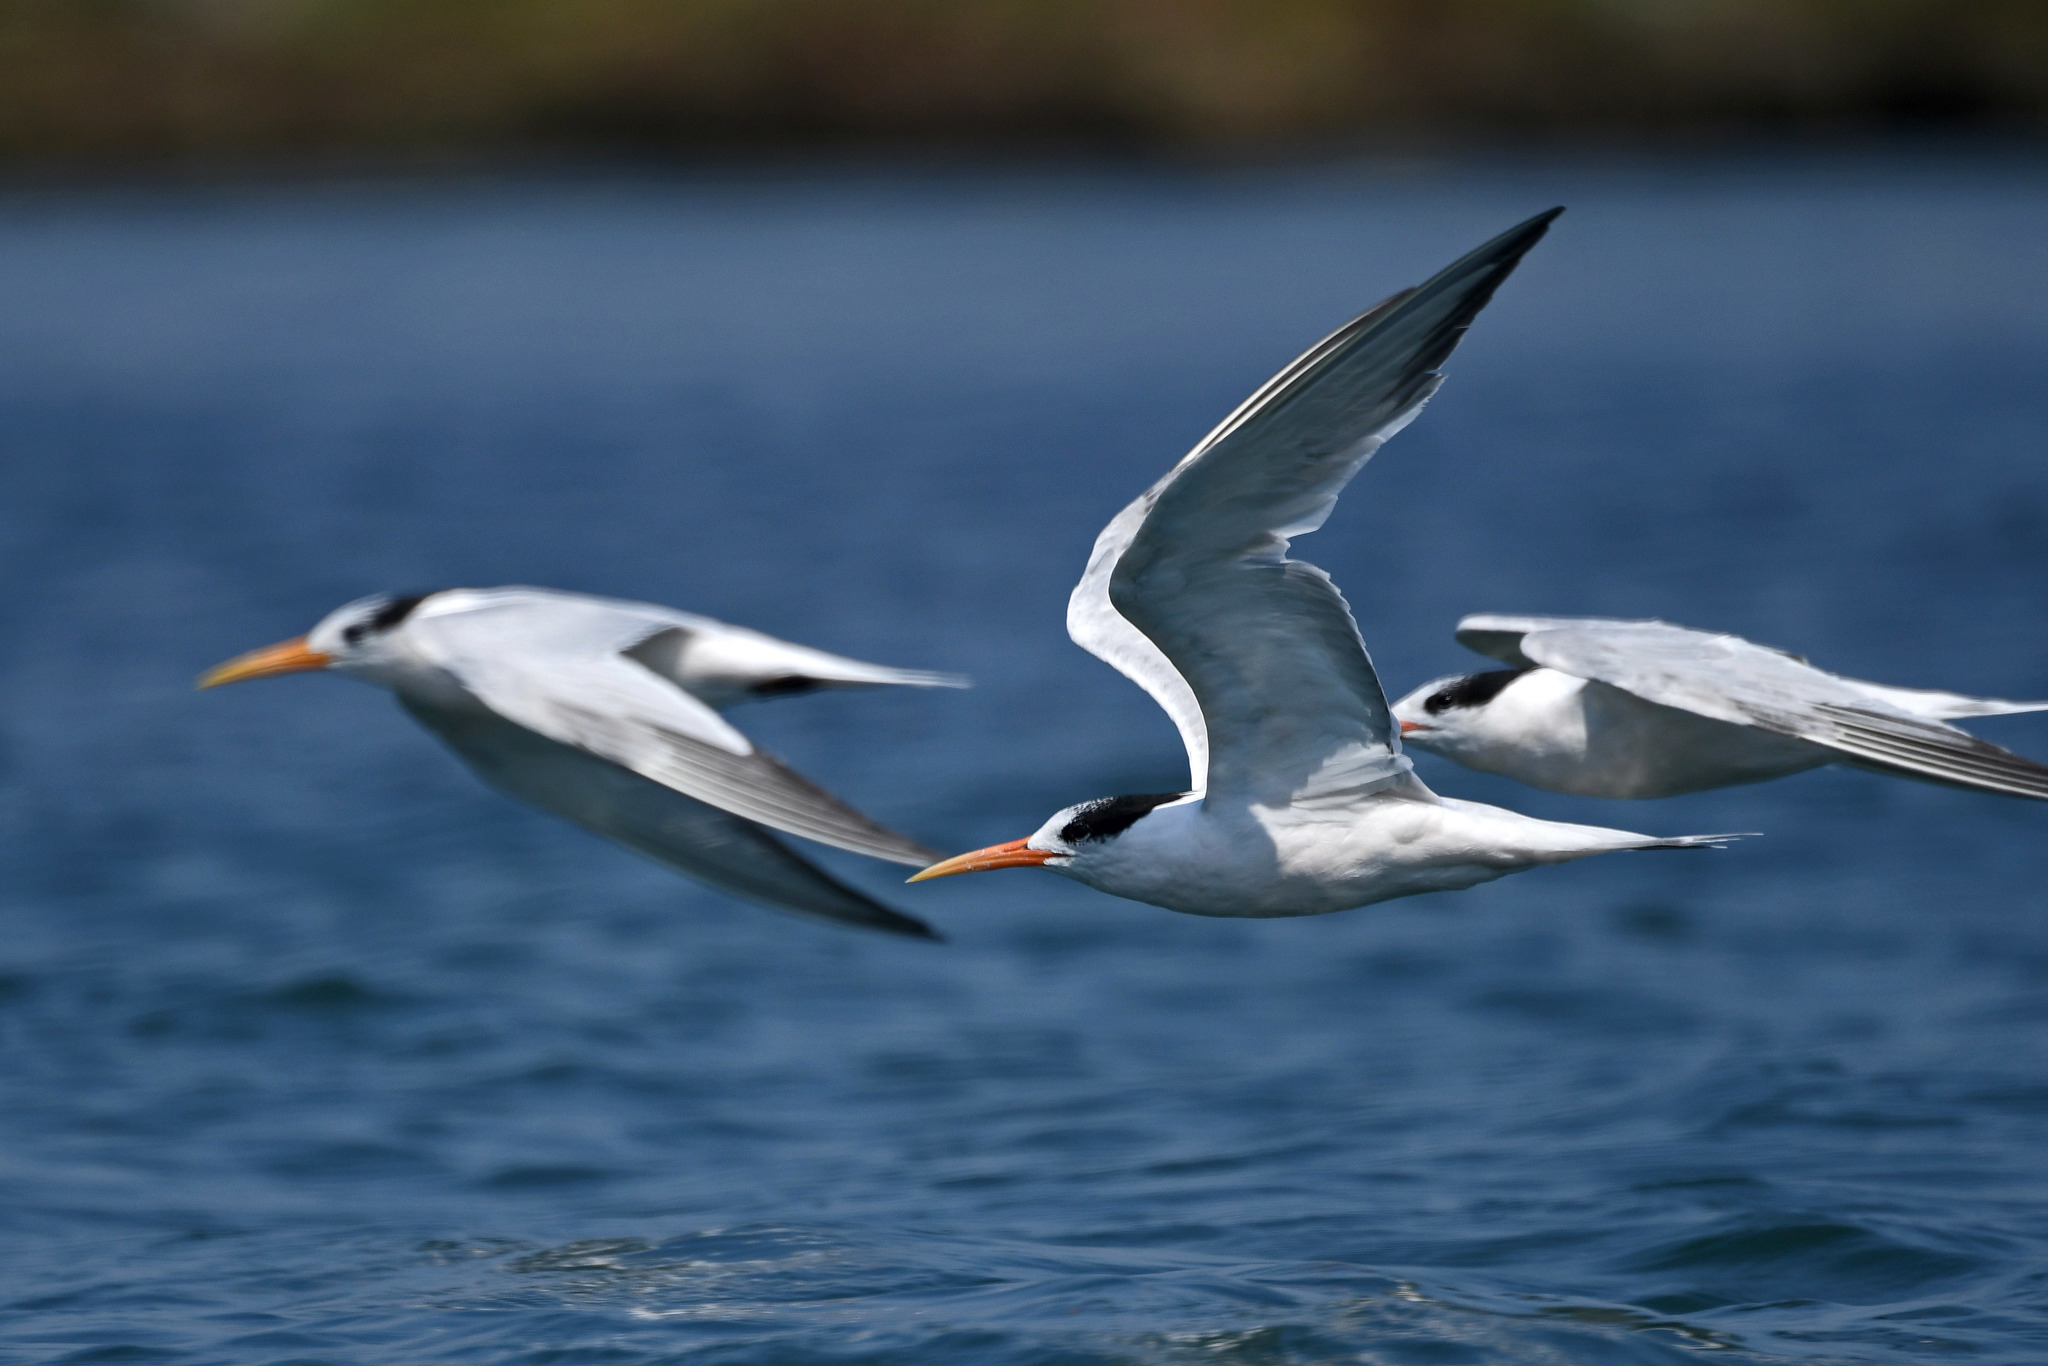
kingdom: Animalia
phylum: Chordata
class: Aves
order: Charadriiformes
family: Laridae
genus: Thalasseus
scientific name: Thalasseus elegans
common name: Elegant tern
